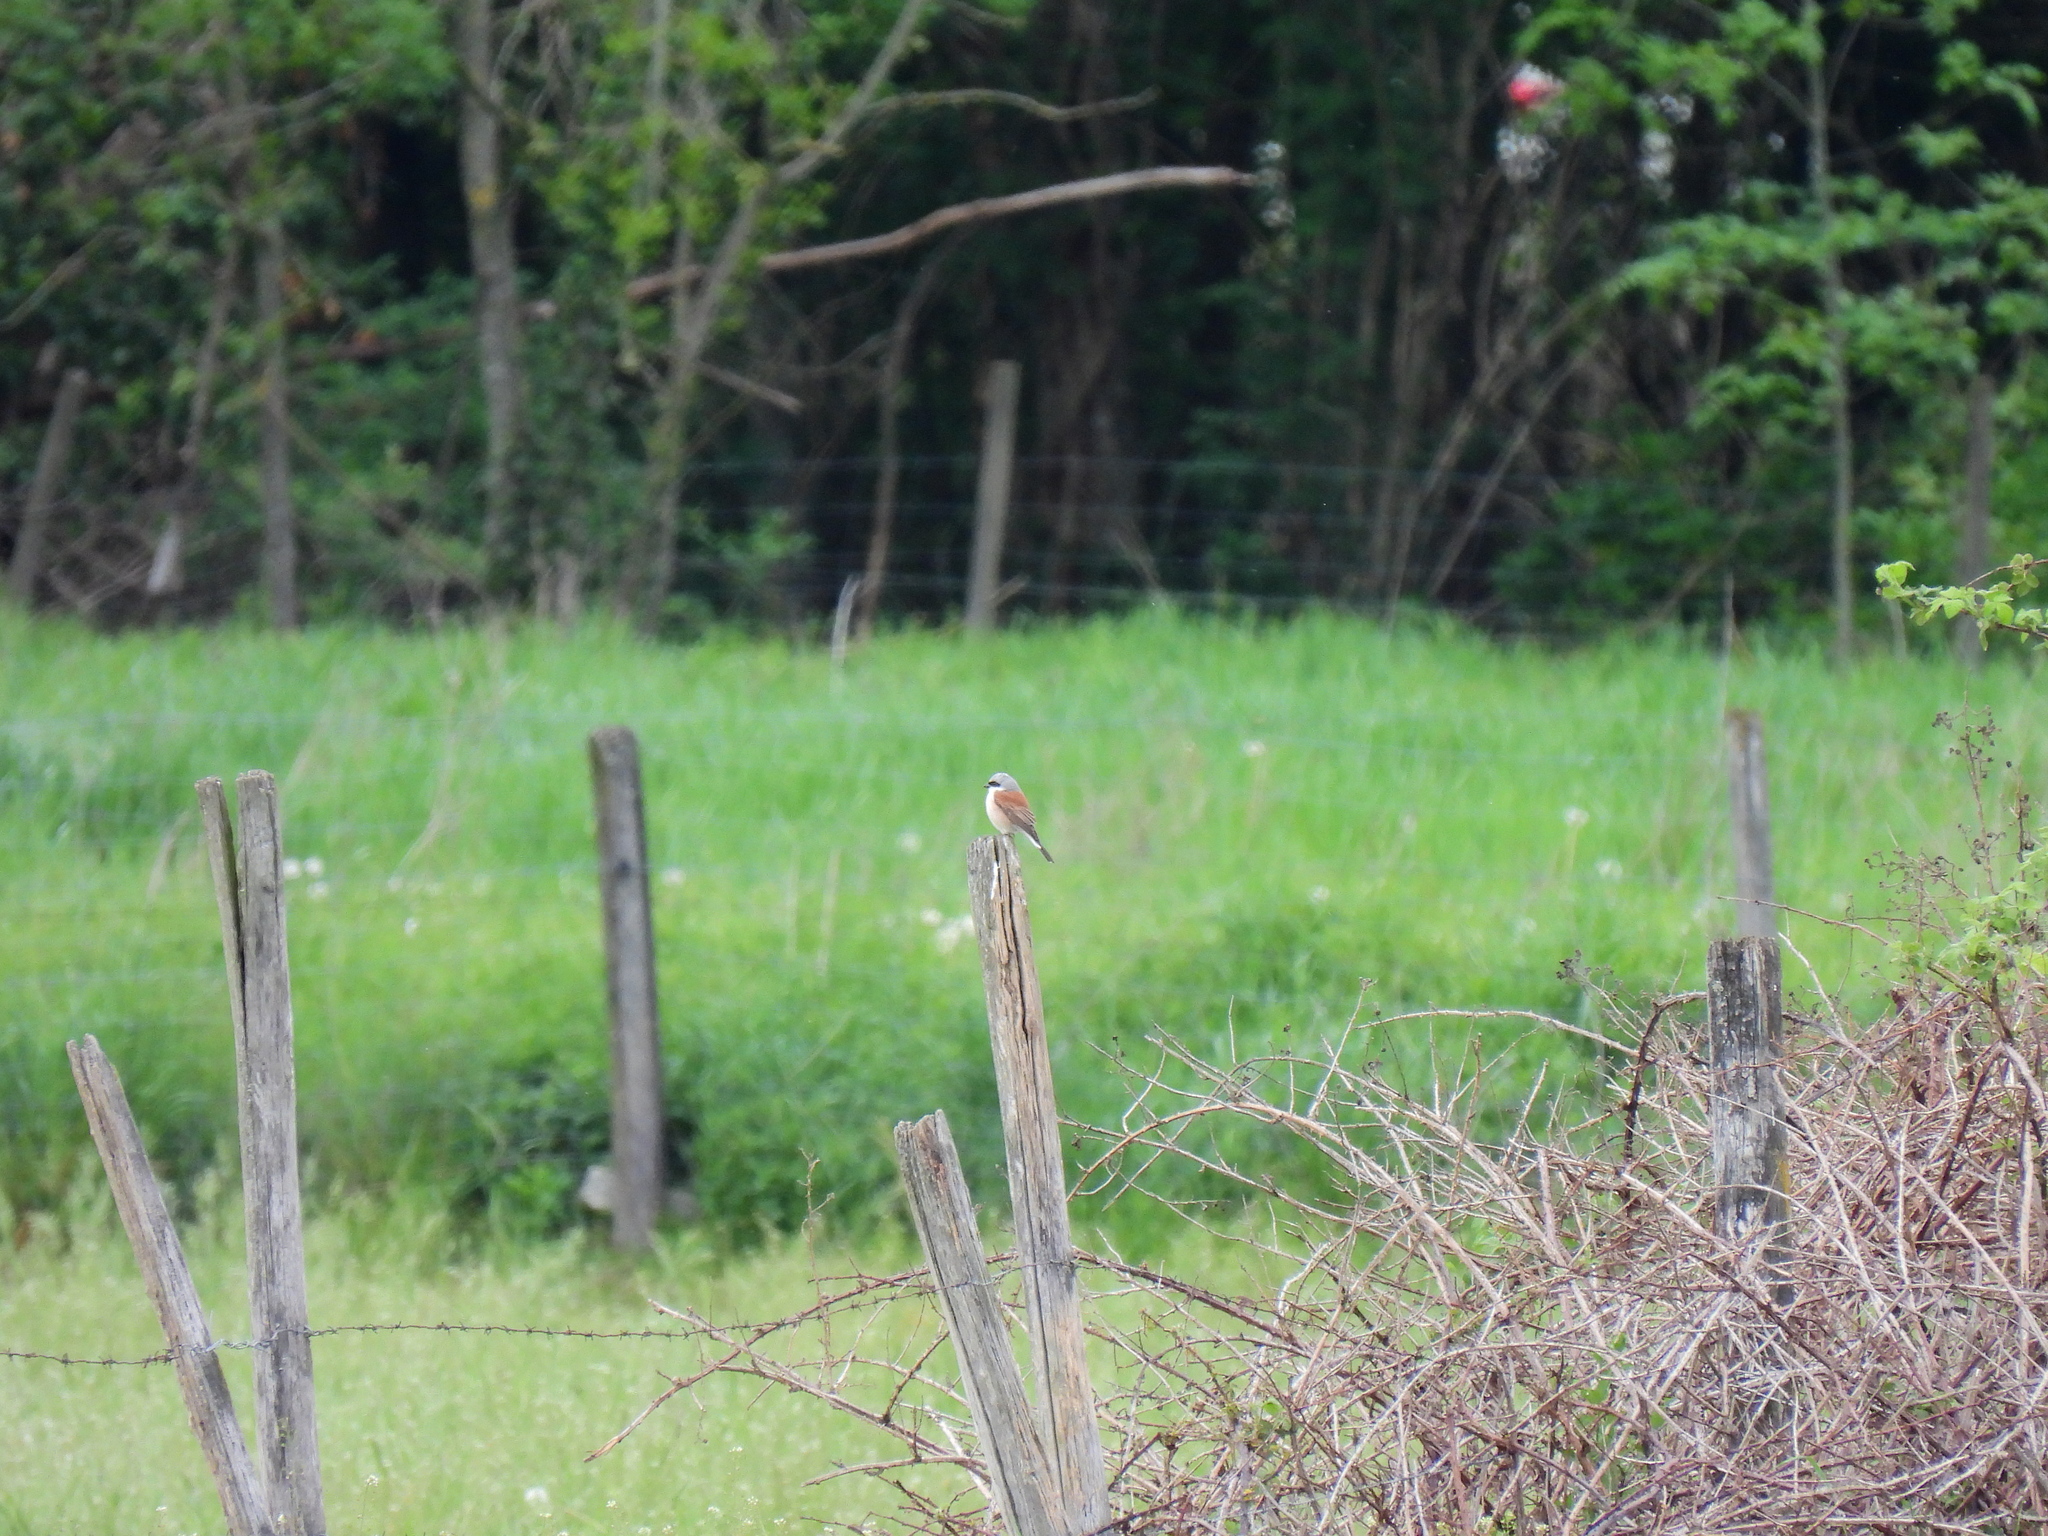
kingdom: Animalia
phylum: Chordata
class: Aves
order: Passeriformes
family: Laniidae
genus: Lanius
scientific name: Lanius collurio
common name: Red-backed shrike
